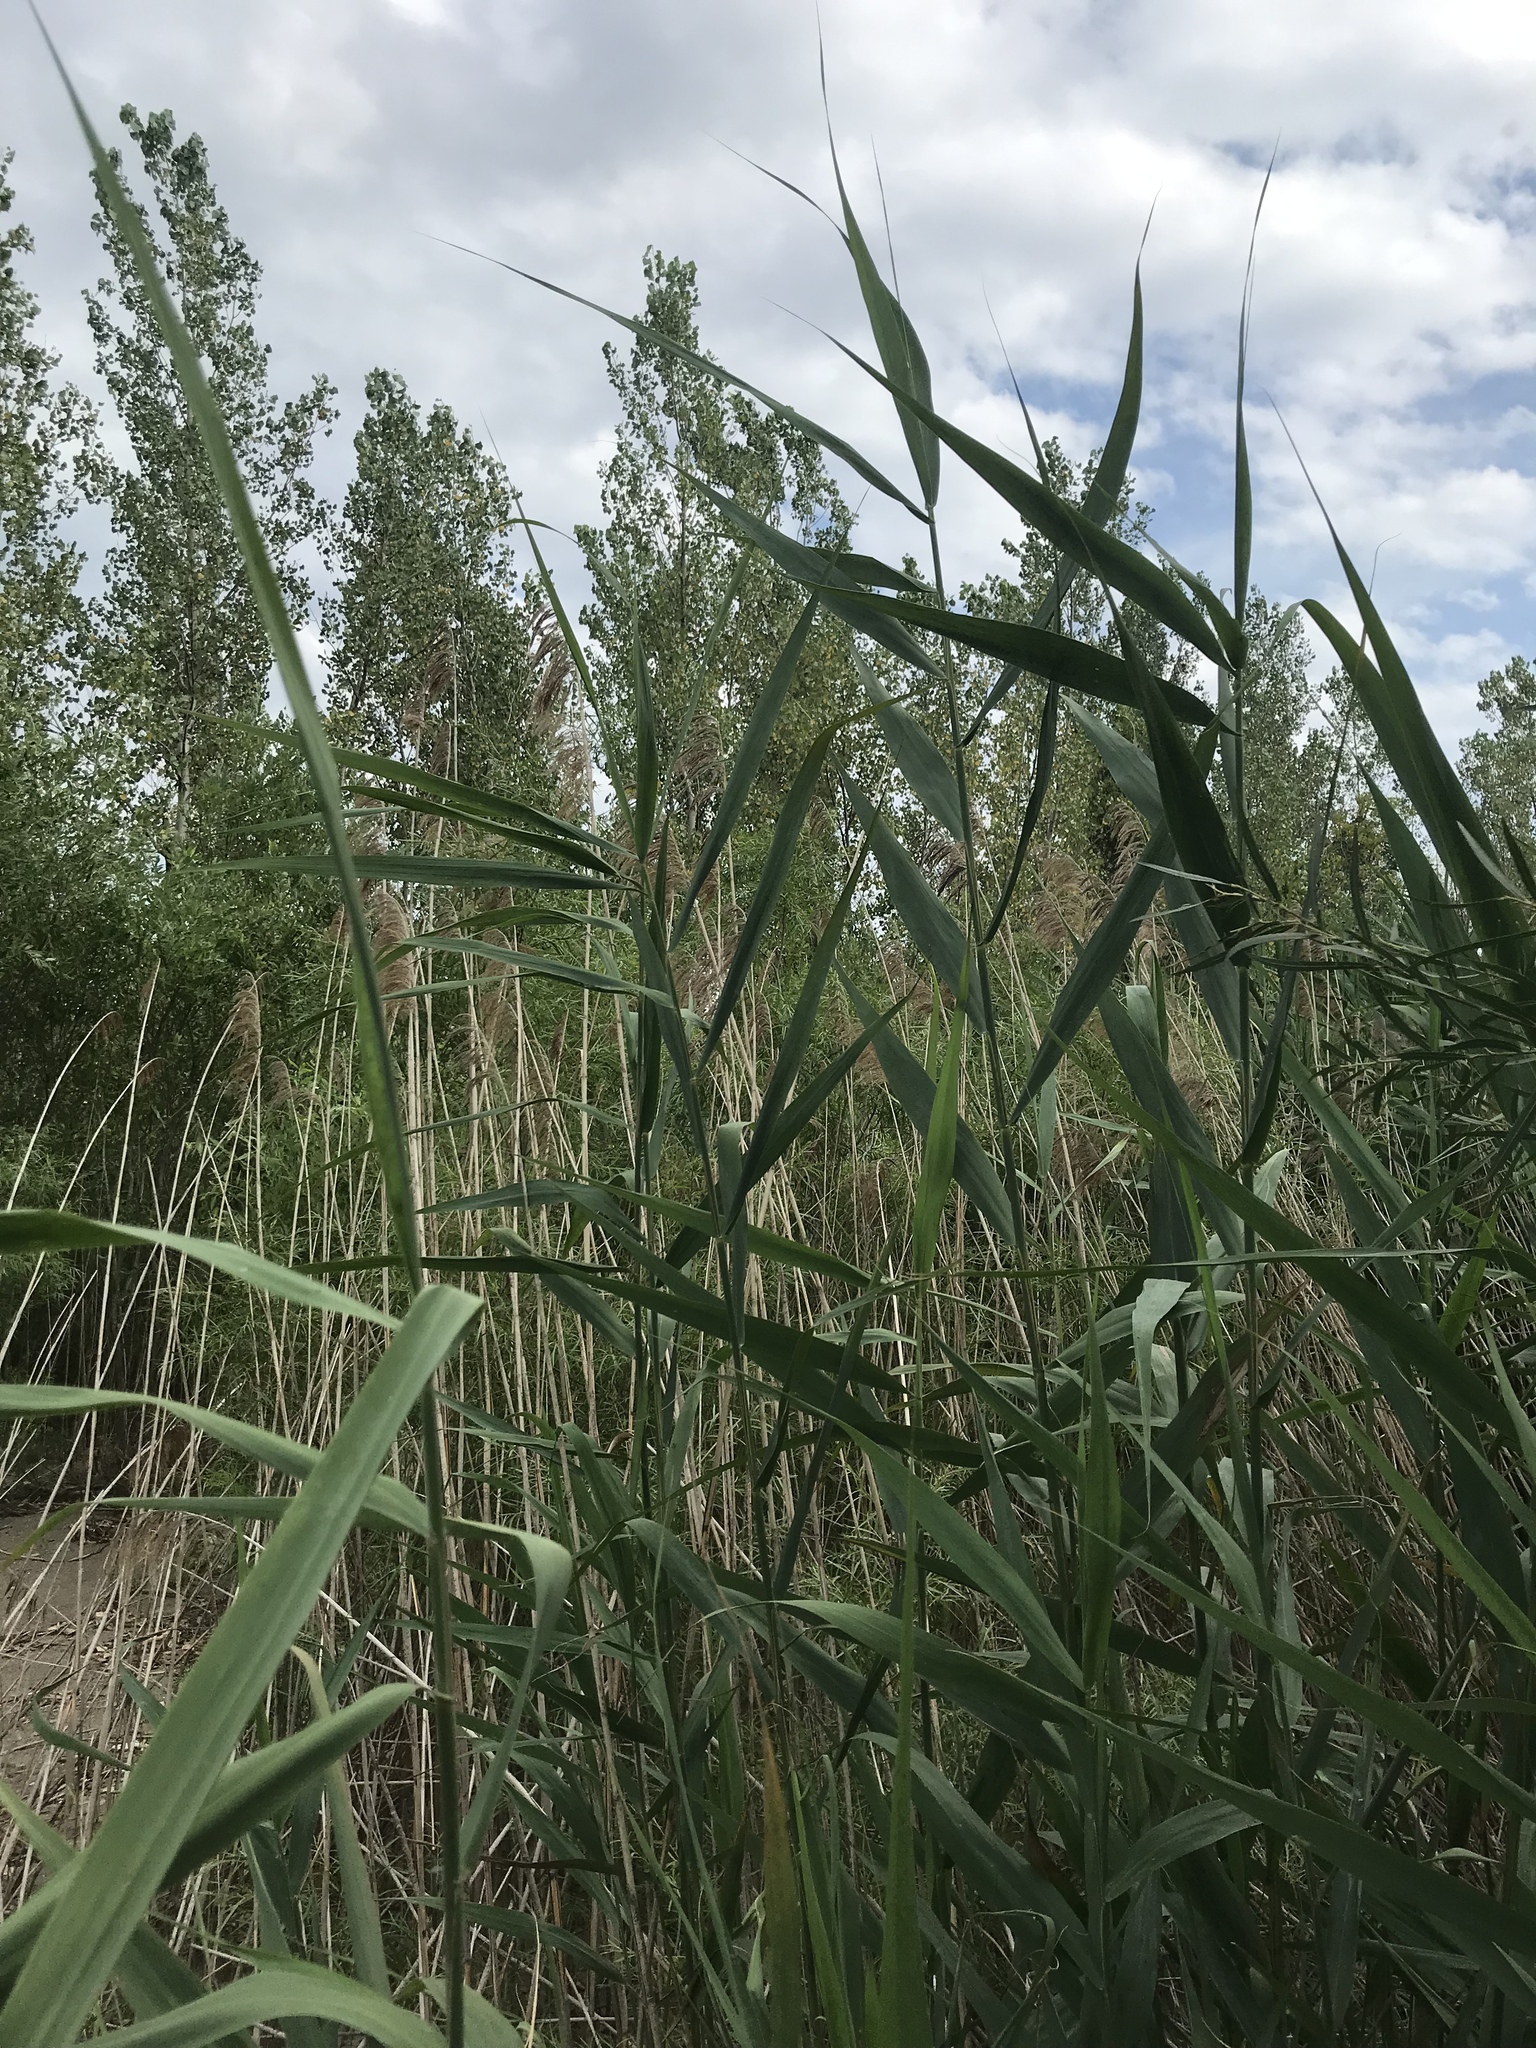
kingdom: Plantae
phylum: Tracheophyta
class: Liliopsida
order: Poales
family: Poaceae
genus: Phragmites
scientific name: Phragmites australis
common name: Common reed
